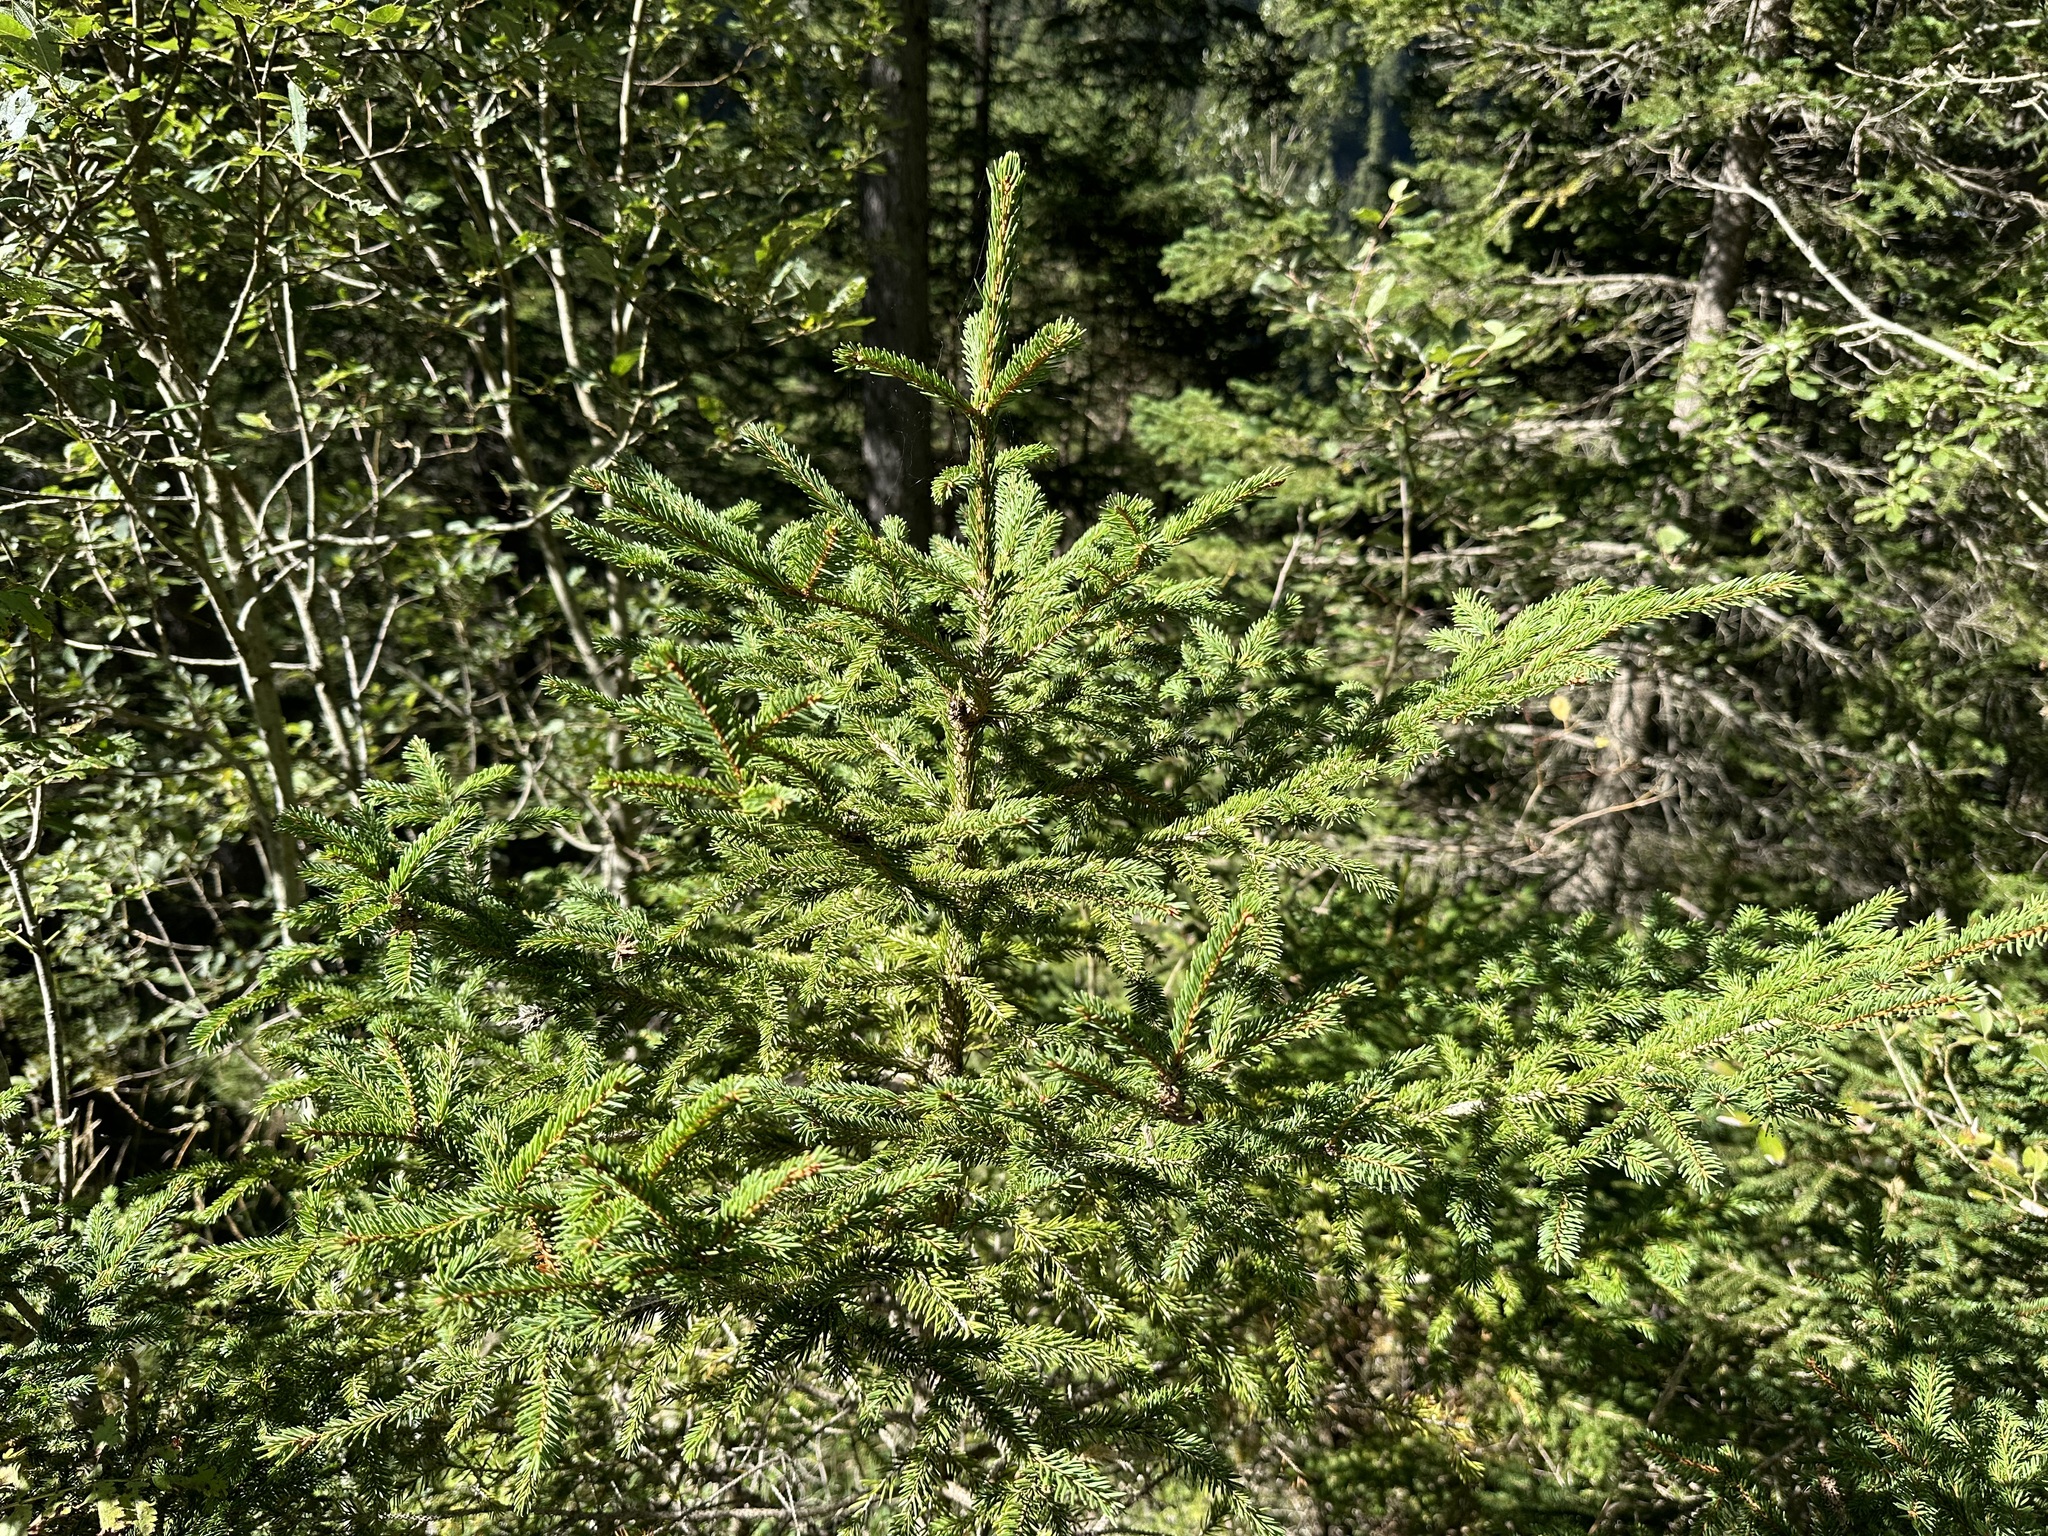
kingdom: Plantae
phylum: Tracheophyta
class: Pinopsida
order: Pinales
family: Pinaceae
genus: Picea
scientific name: Picea abies
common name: Norway spruce
